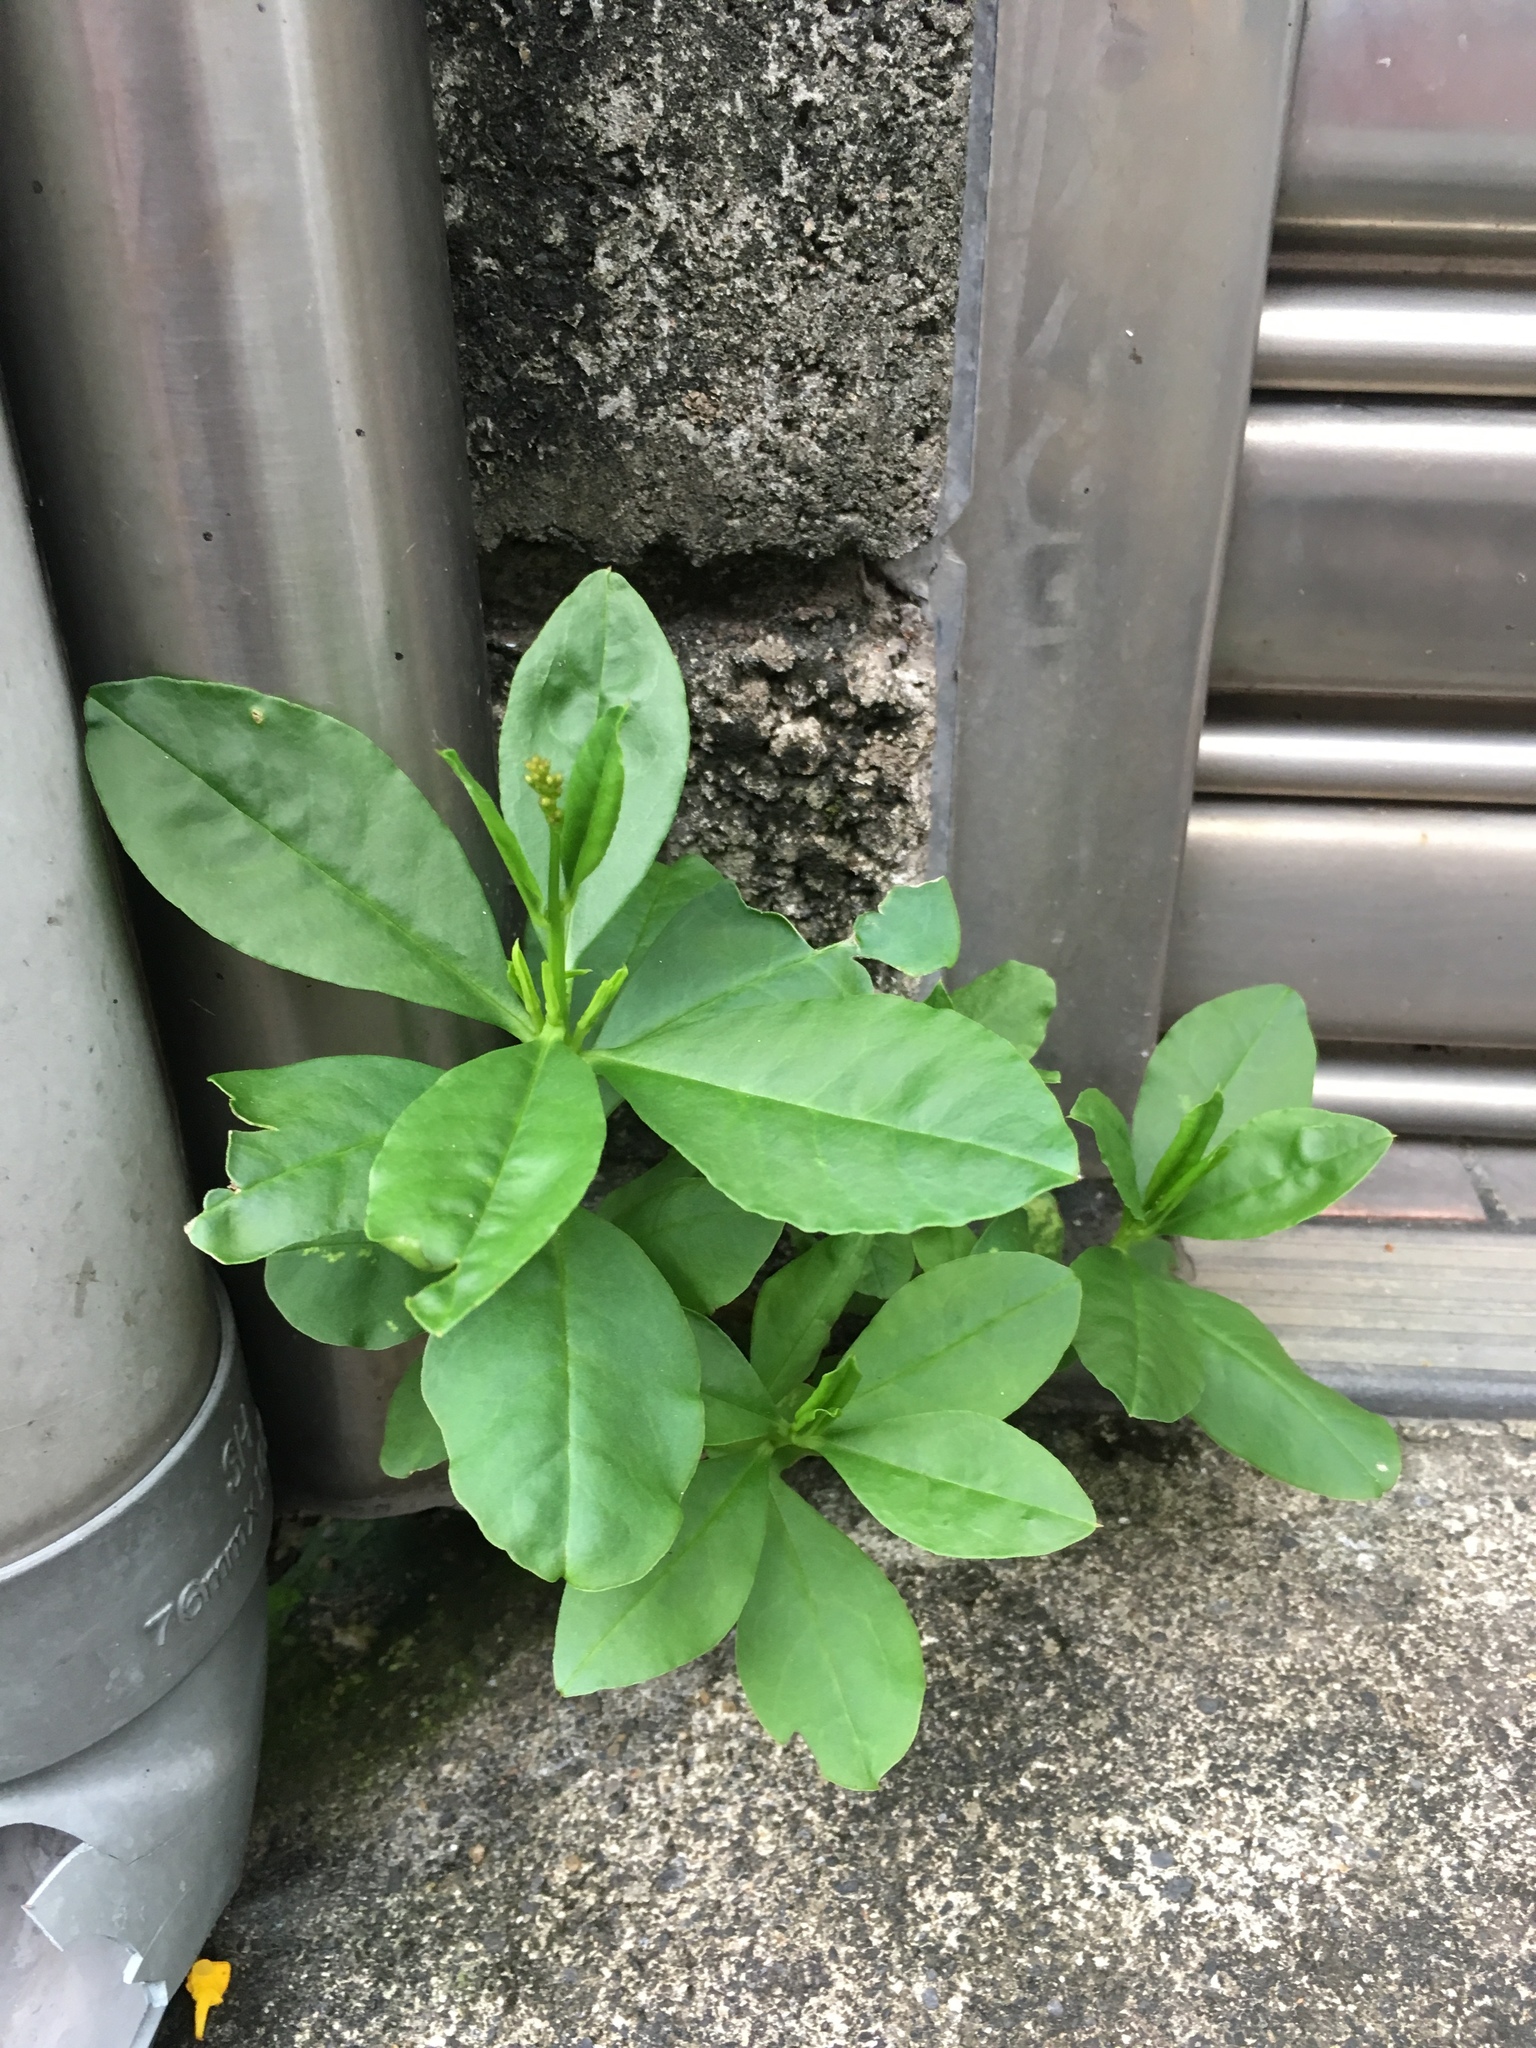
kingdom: Plantae
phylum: Tracheophyta
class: Magnoliopsida
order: Caryophyllales
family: Talinaceae
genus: Talinum
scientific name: Talinum paniculatum
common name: Jewels of opar
